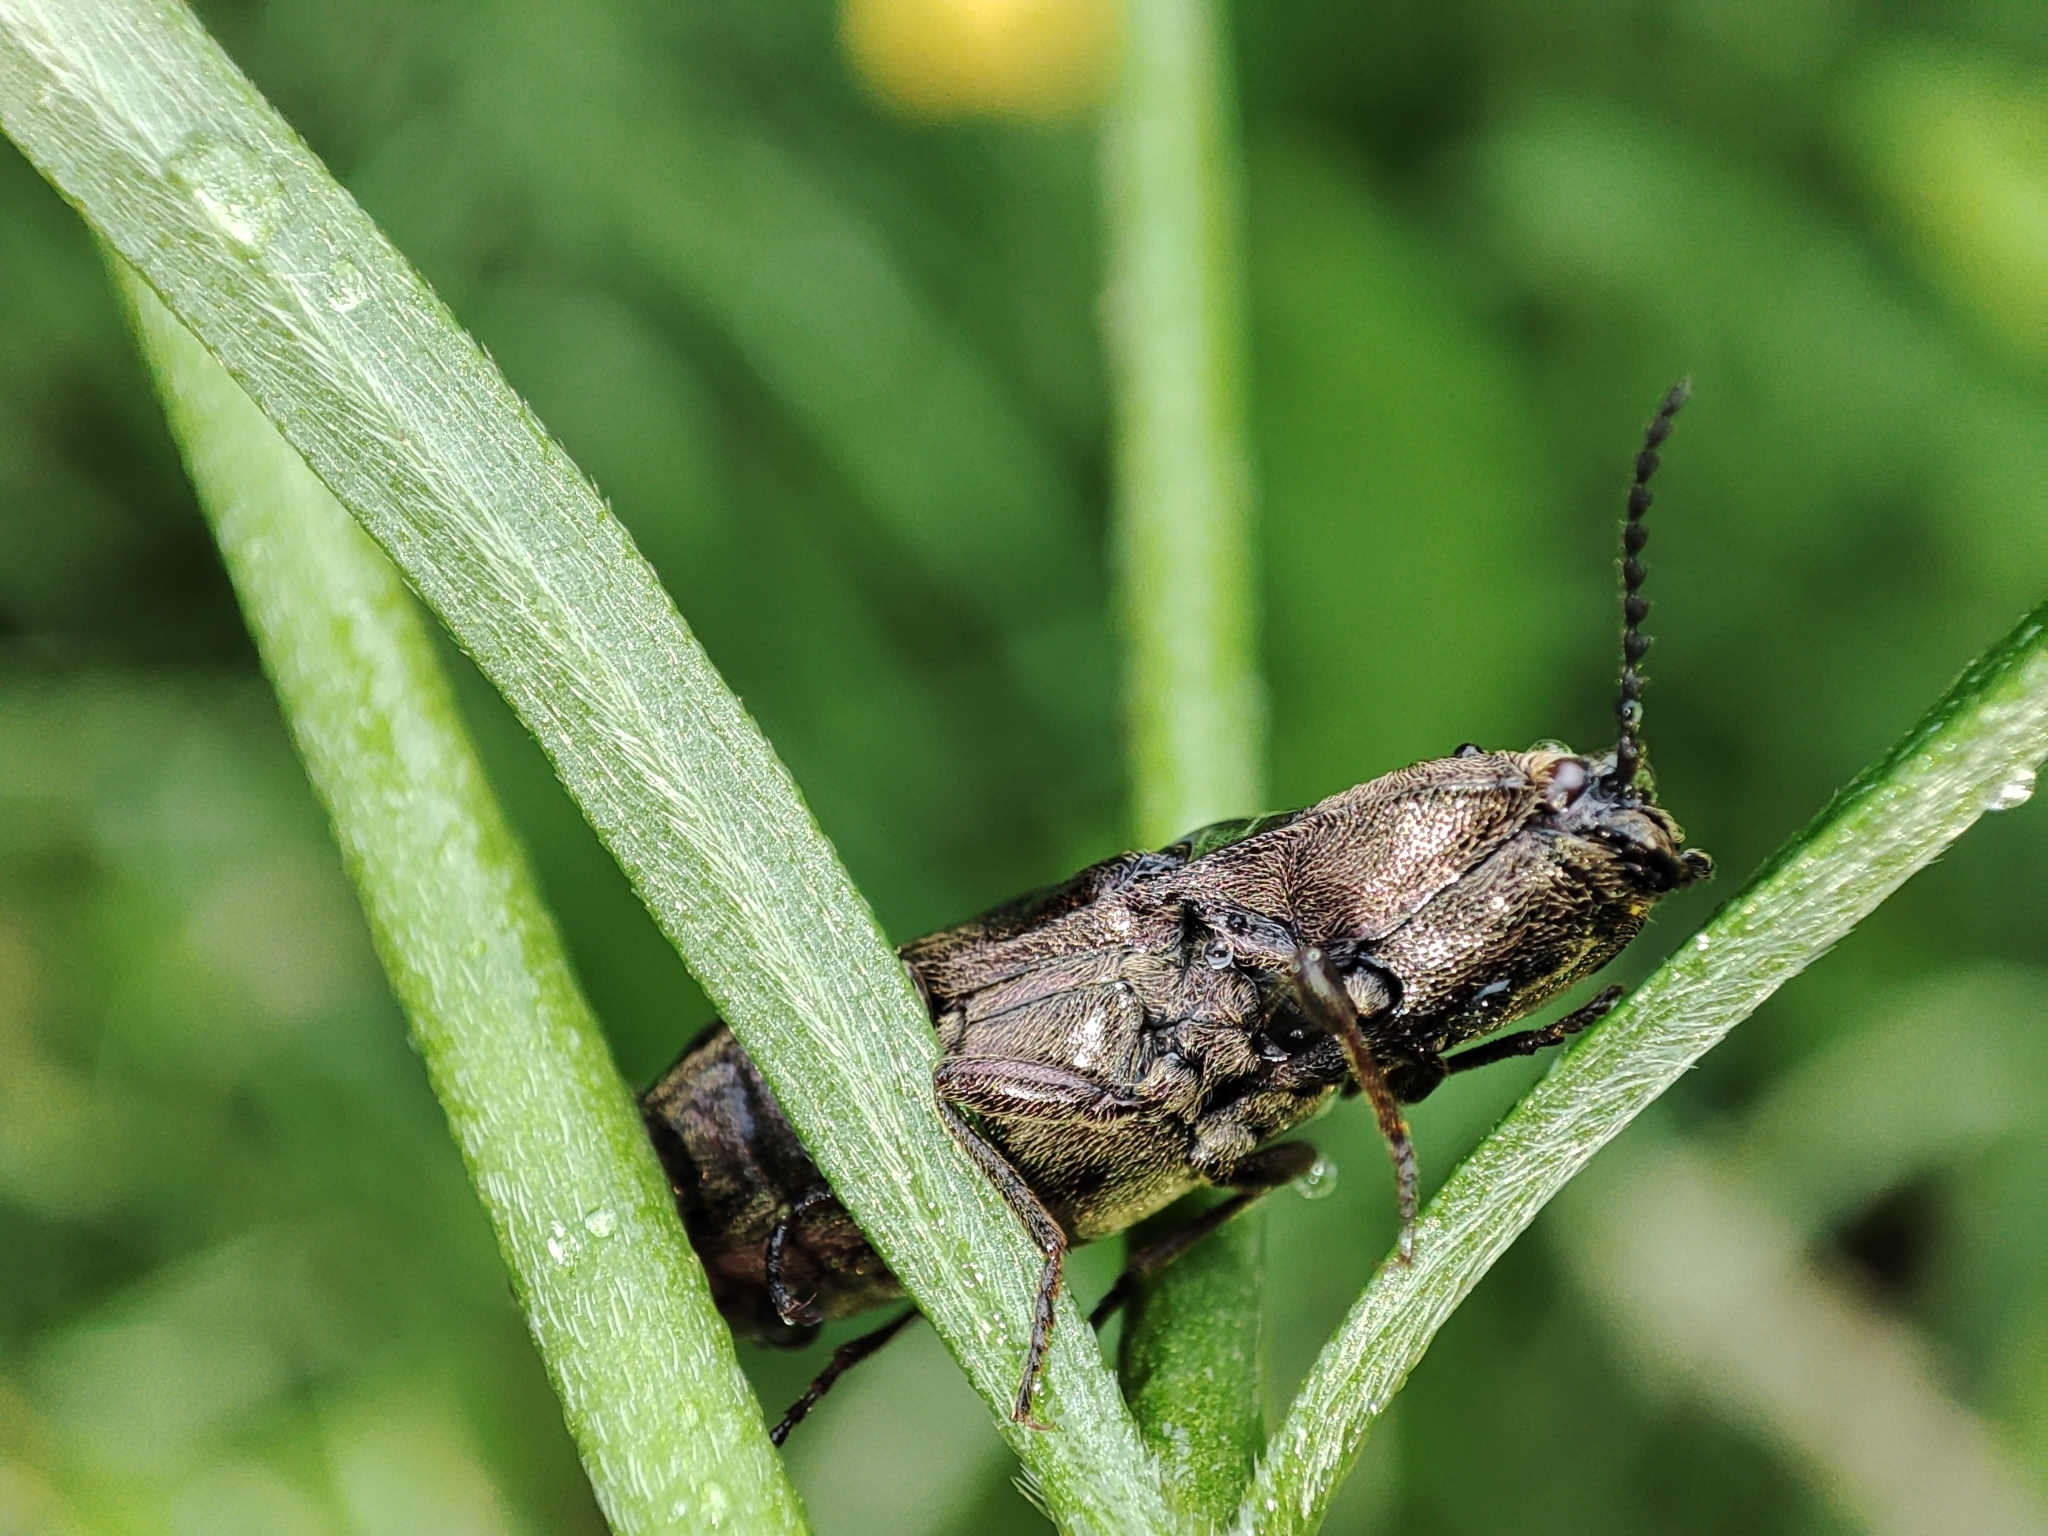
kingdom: Animalia
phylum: Arthropoda
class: Insecta
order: Coleoptera
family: Elateridae
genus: Prosternon
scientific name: Prosternon tessellatum
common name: Chequered click beetle
